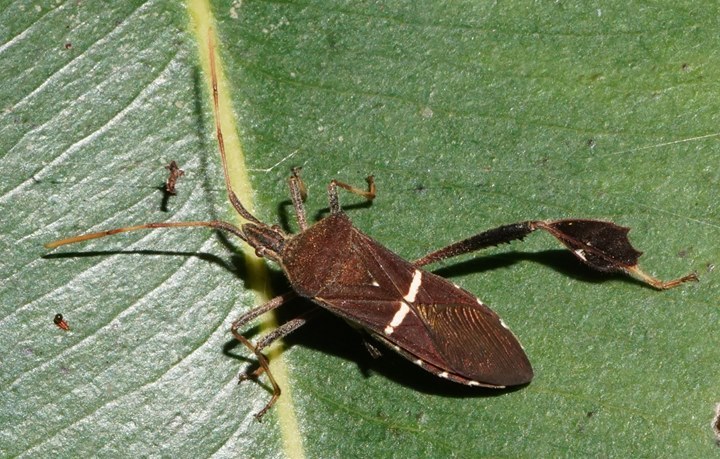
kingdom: Animalia
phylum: Arthropoda
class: Insecta
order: Hemiptera
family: Coreidae
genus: Leptoglossus
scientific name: Leptoglossus phyllopus
